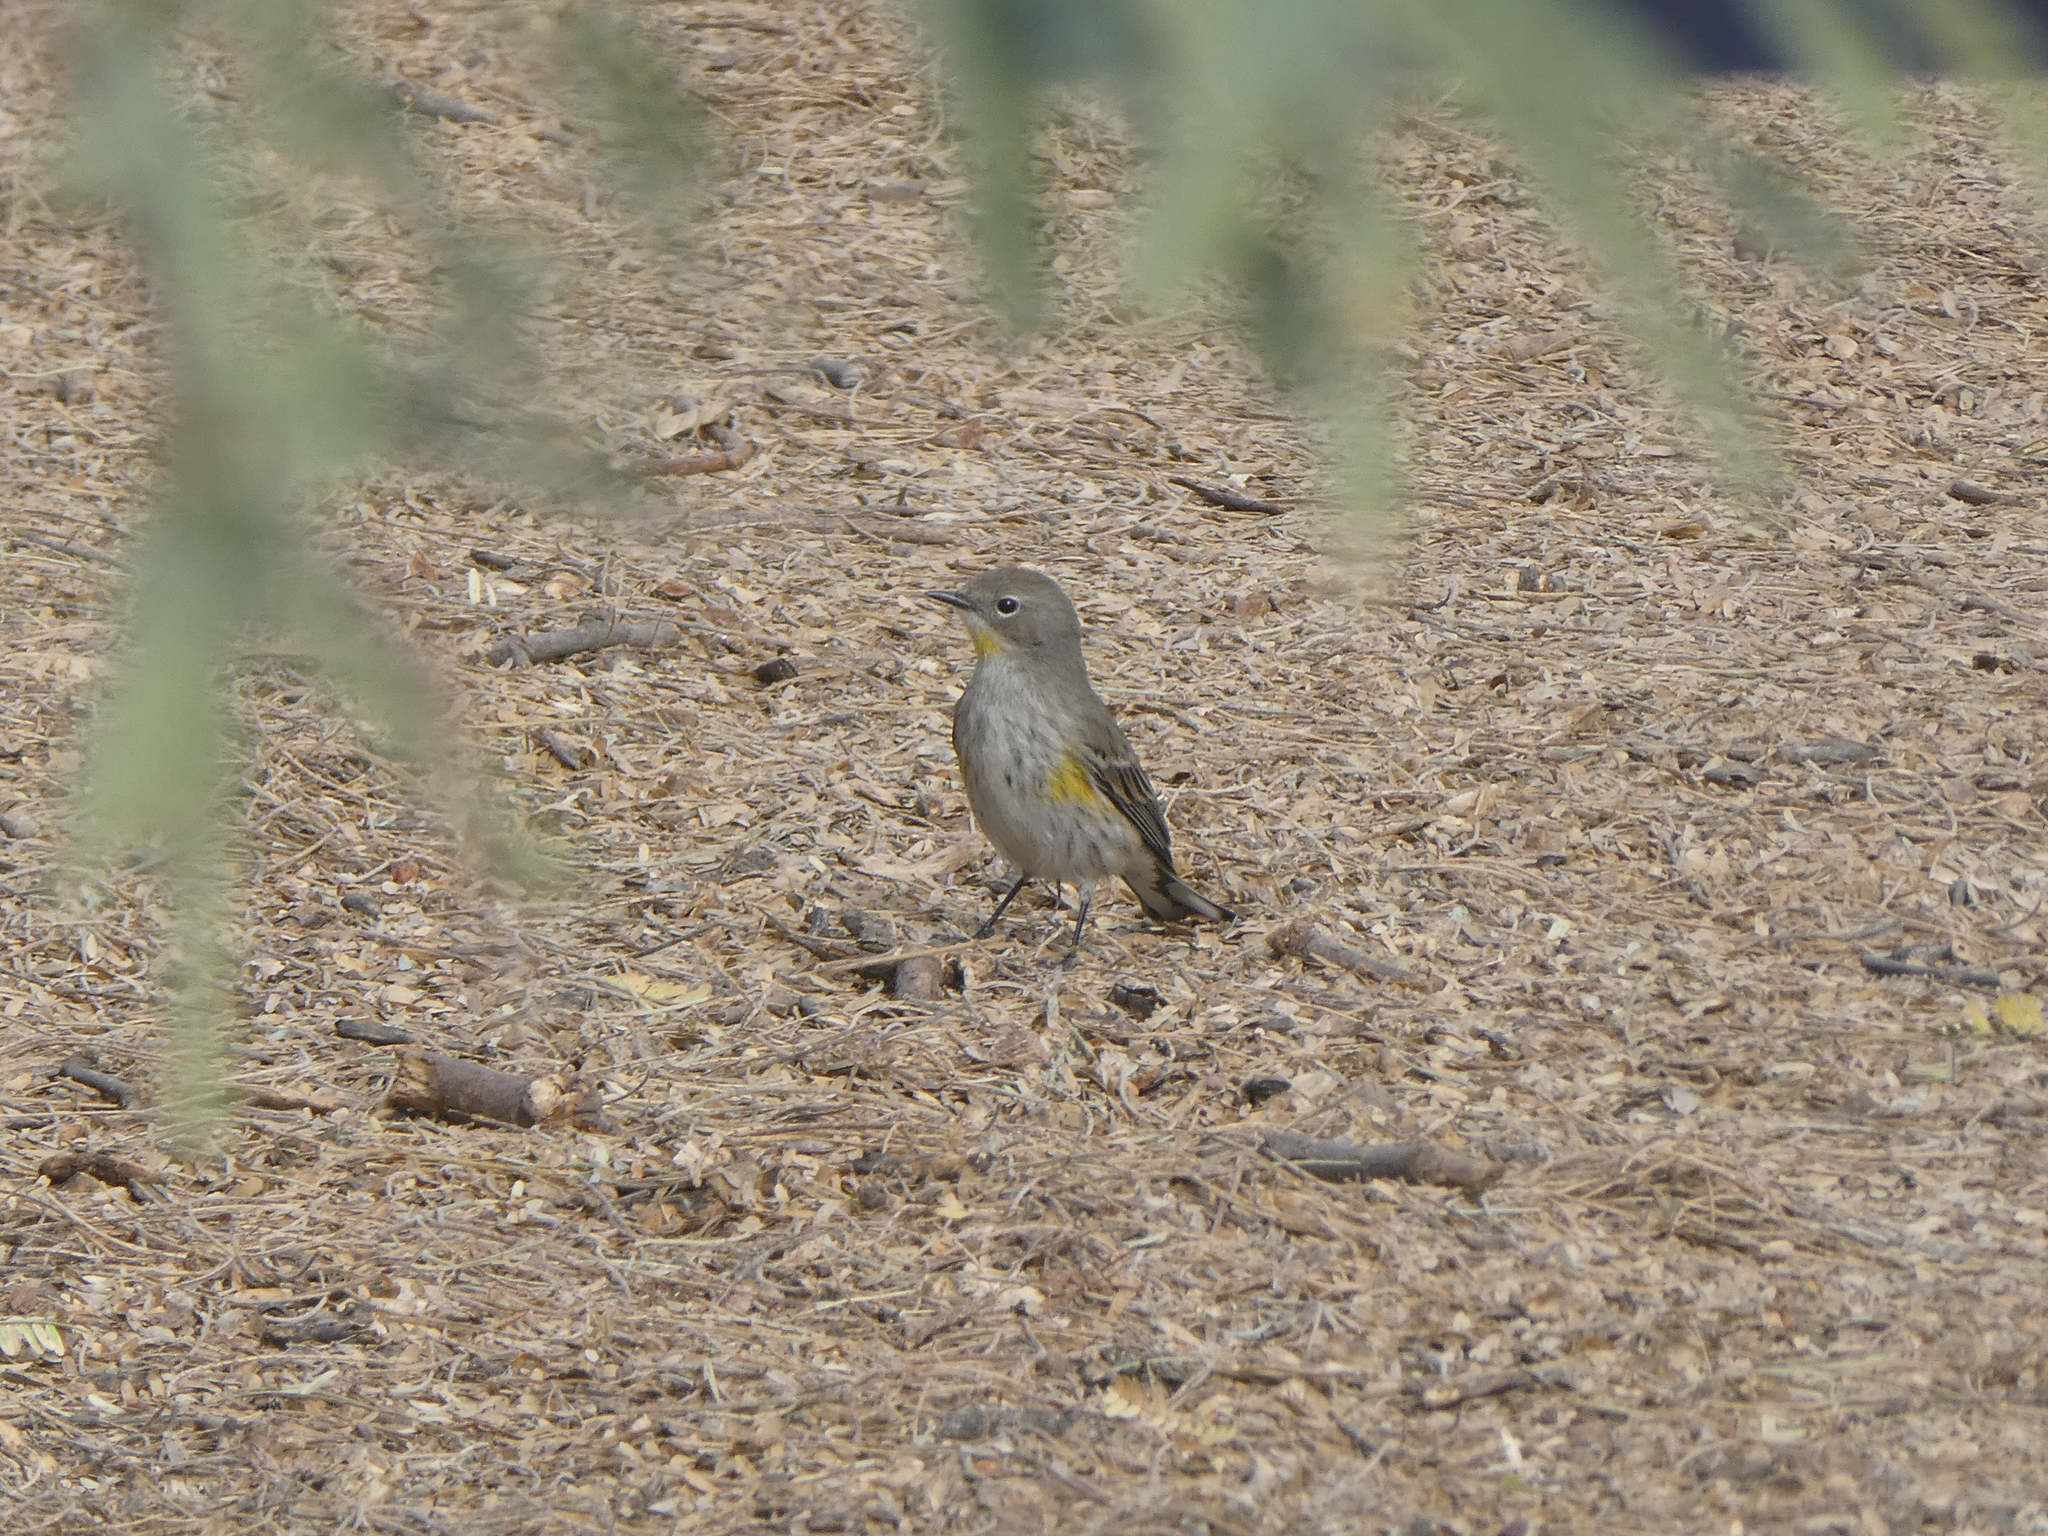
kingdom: Animalia
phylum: Chordata
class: Aves
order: Passeriformes
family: Parulidae
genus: Setophaga
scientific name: Setophaga coronata
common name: Myrtle warbler
